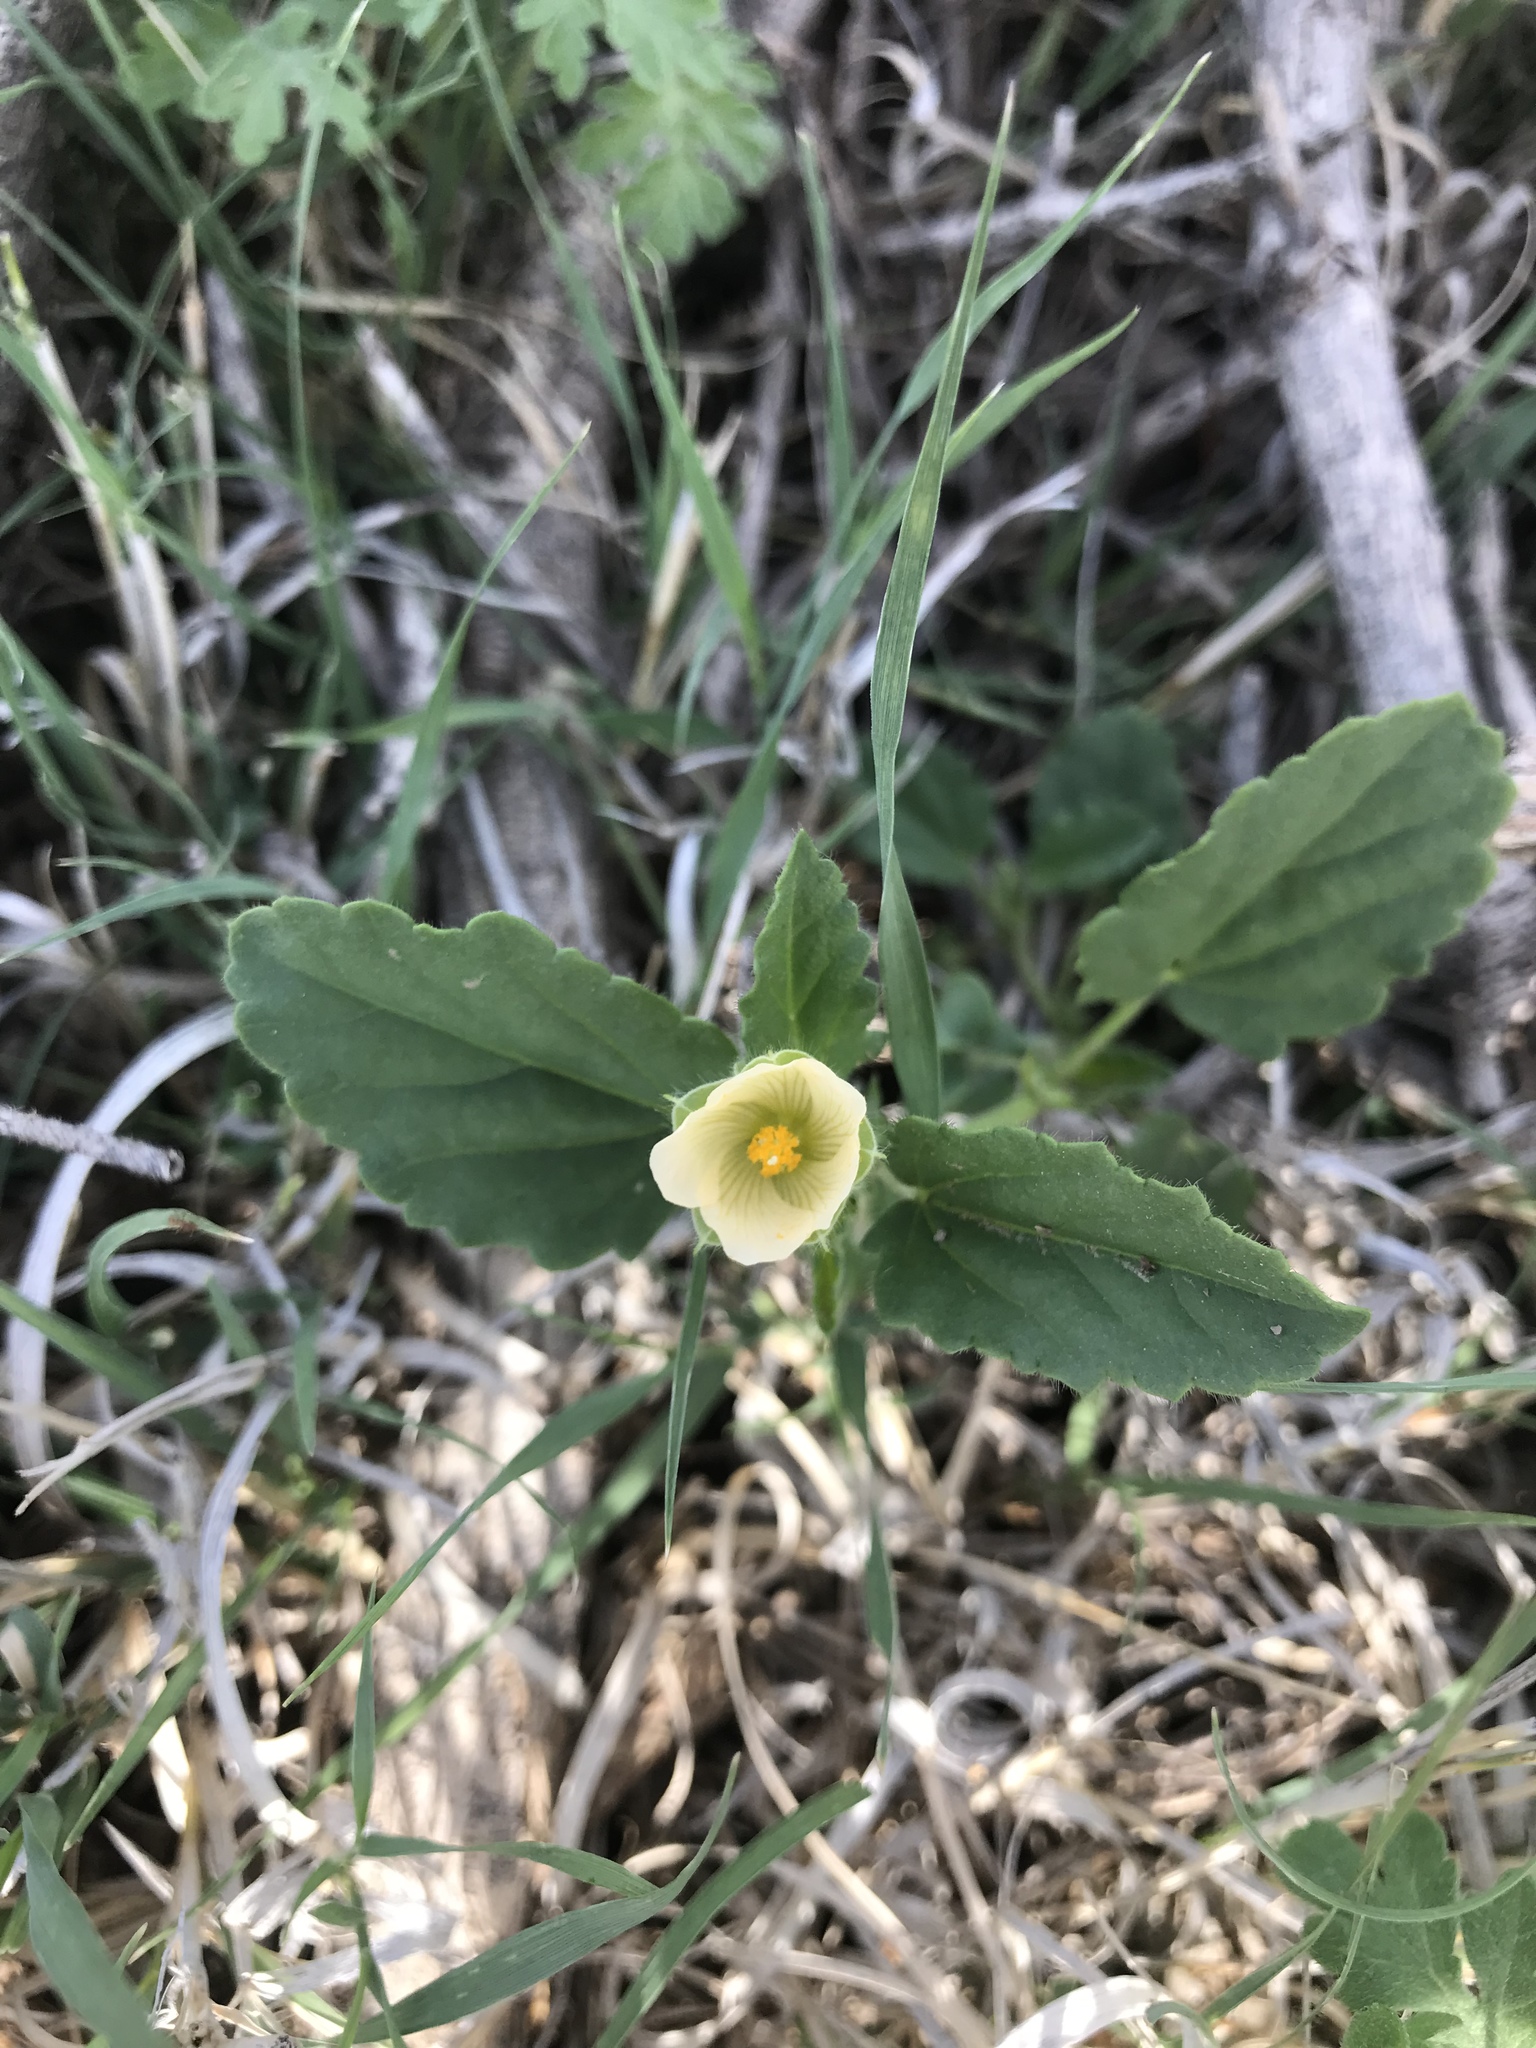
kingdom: Plantae
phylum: Tracheophyta
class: Magnoliopsida
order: Malvales
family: Malvaceae
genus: Rhynchosida
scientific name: Rhynchosida physocalyx
